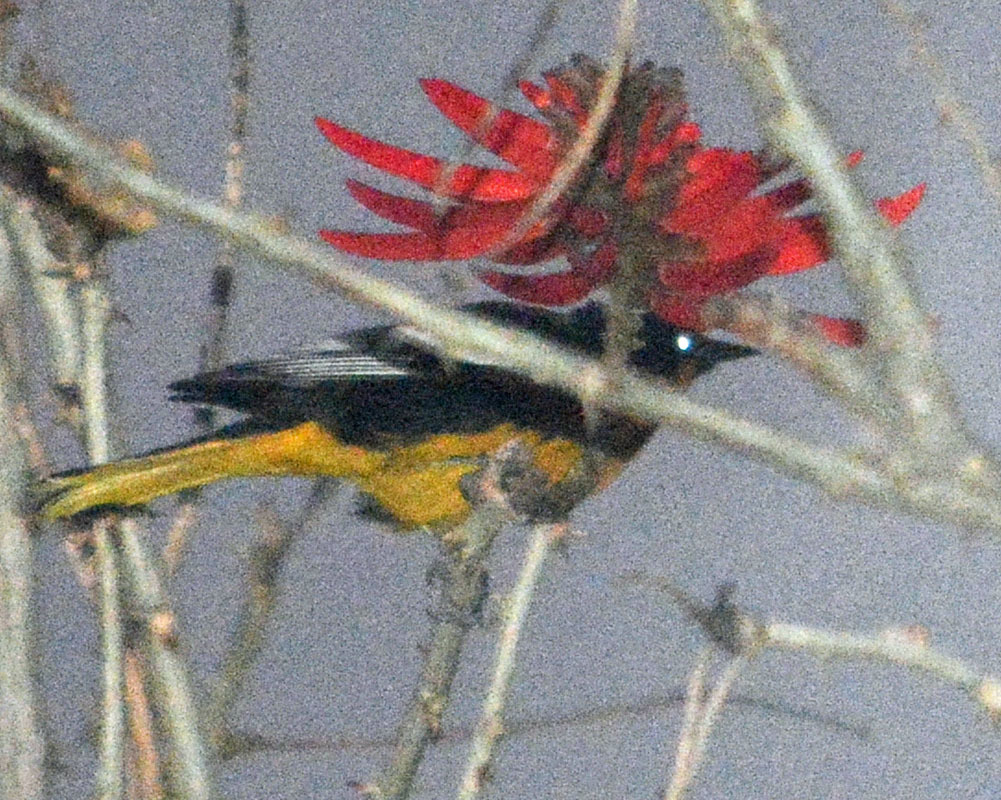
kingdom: Animalia
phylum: Chordata
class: Aves
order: Passeriformes
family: Icteridae
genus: Icterus
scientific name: Icterus abeillei
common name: Black-backed oriole
